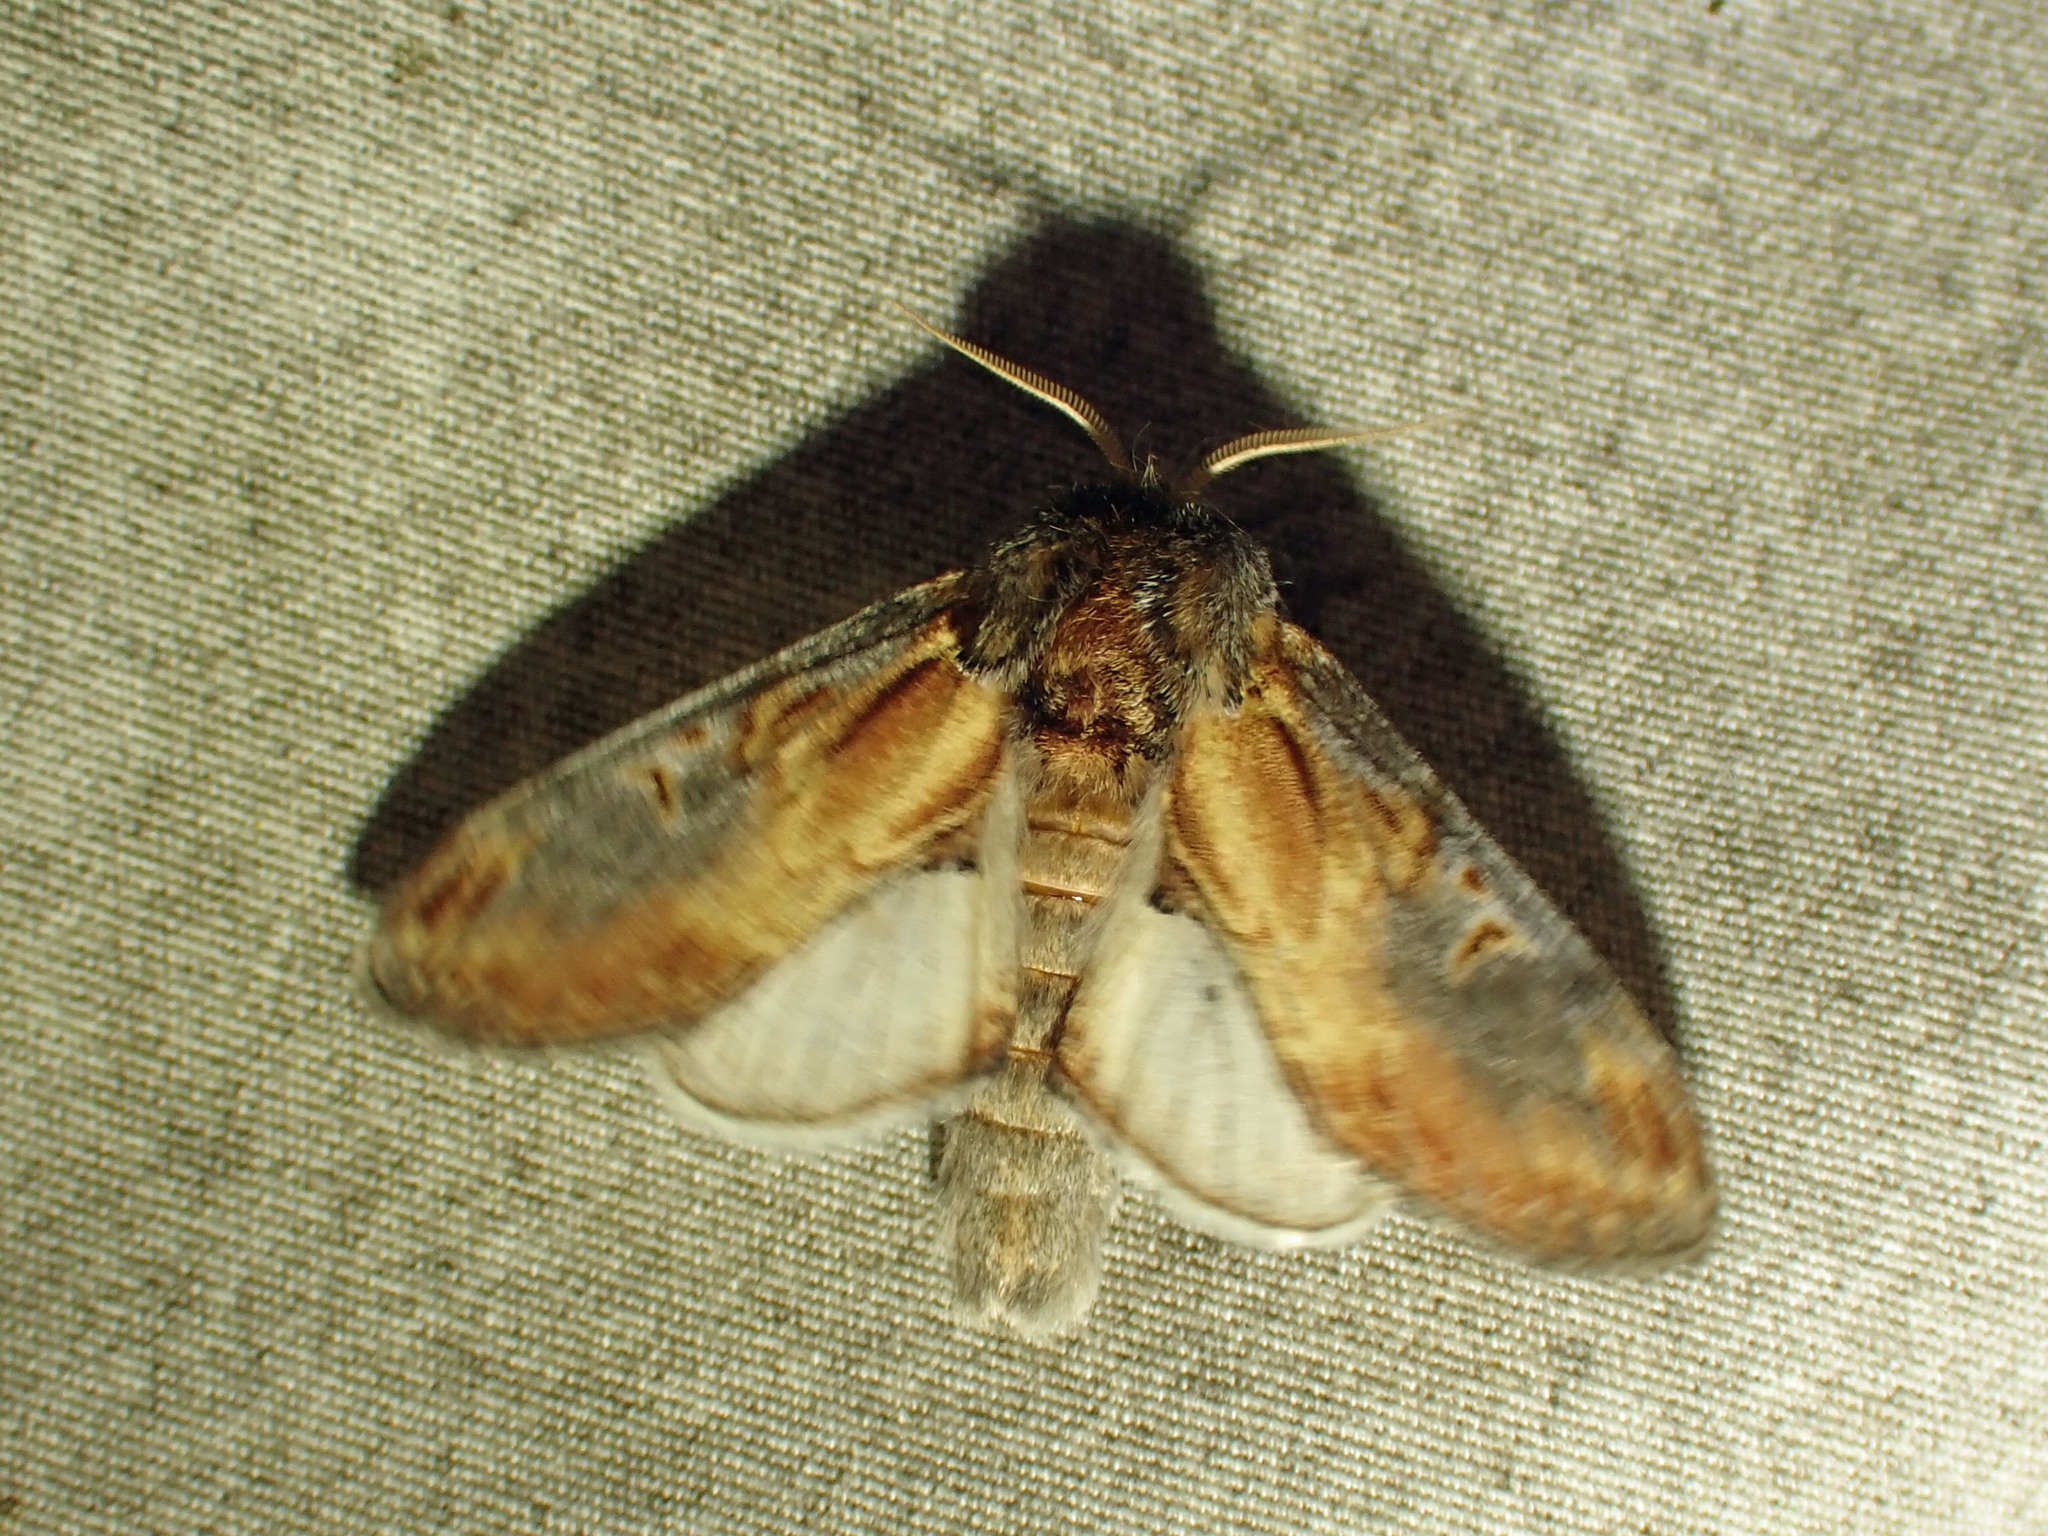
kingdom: Animalia
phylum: Arthropoda
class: Insecta
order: Lepidoptera
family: Notodontidae
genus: Notodonta
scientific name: Notodonta scitipennis
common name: Finned-willow prominent moth
